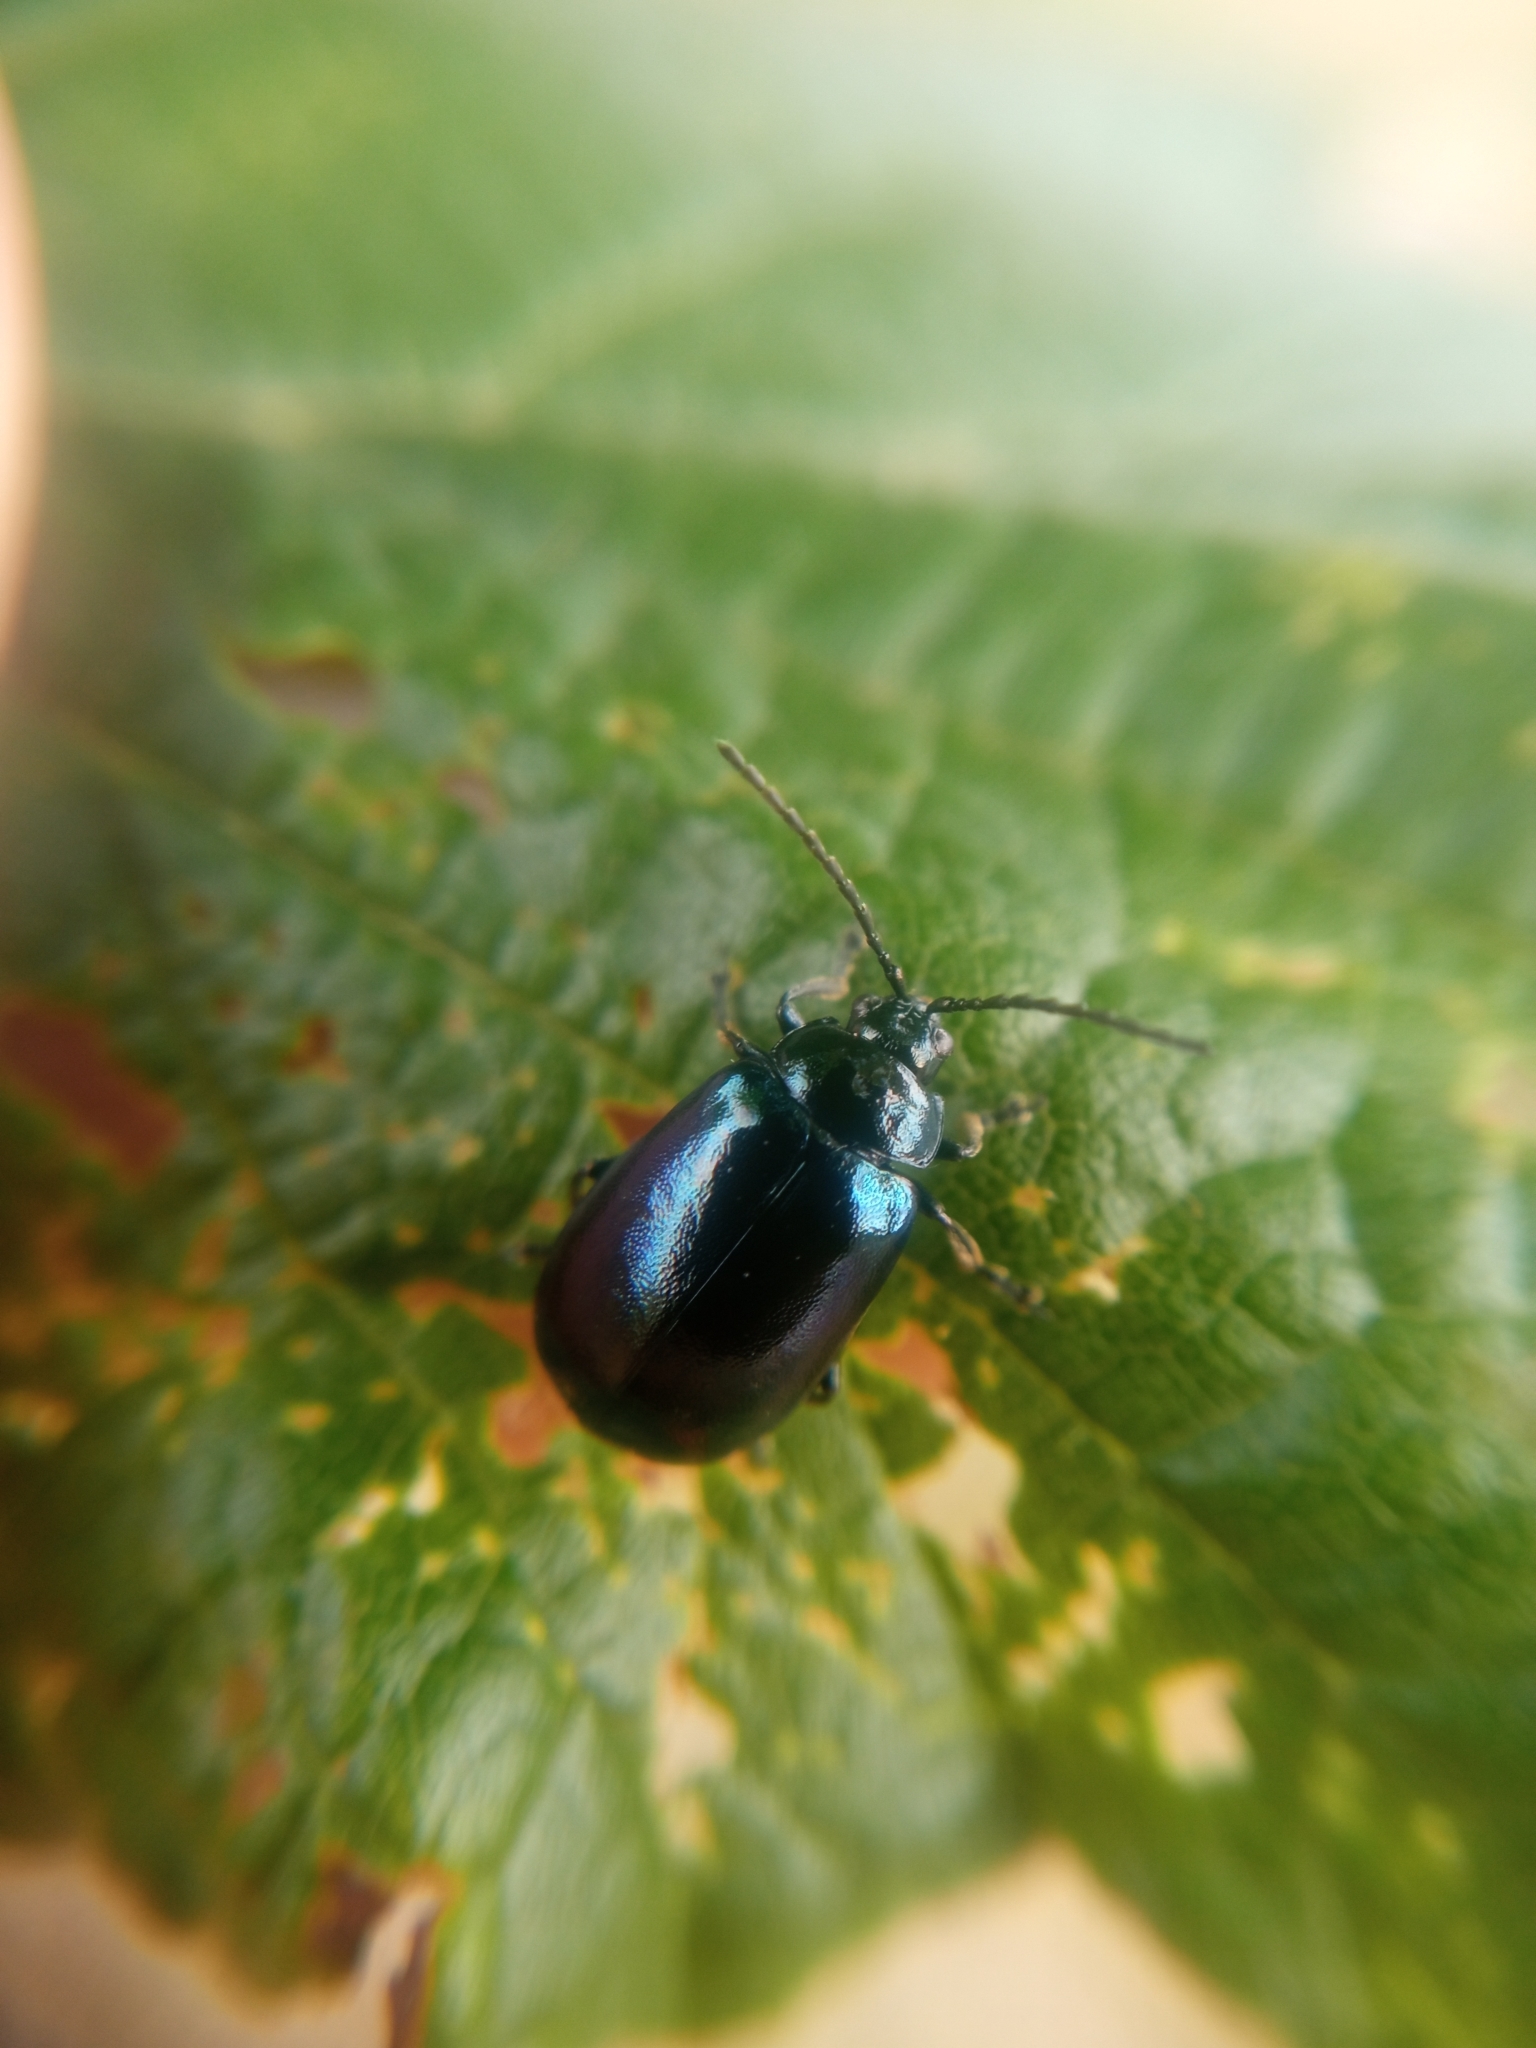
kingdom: Animalia
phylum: Arthropoda
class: Insecta
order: Coleoptera
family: Chrysomelidae
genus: Agelastica
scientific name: Agelastica alni
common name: Alder leaf beetle
